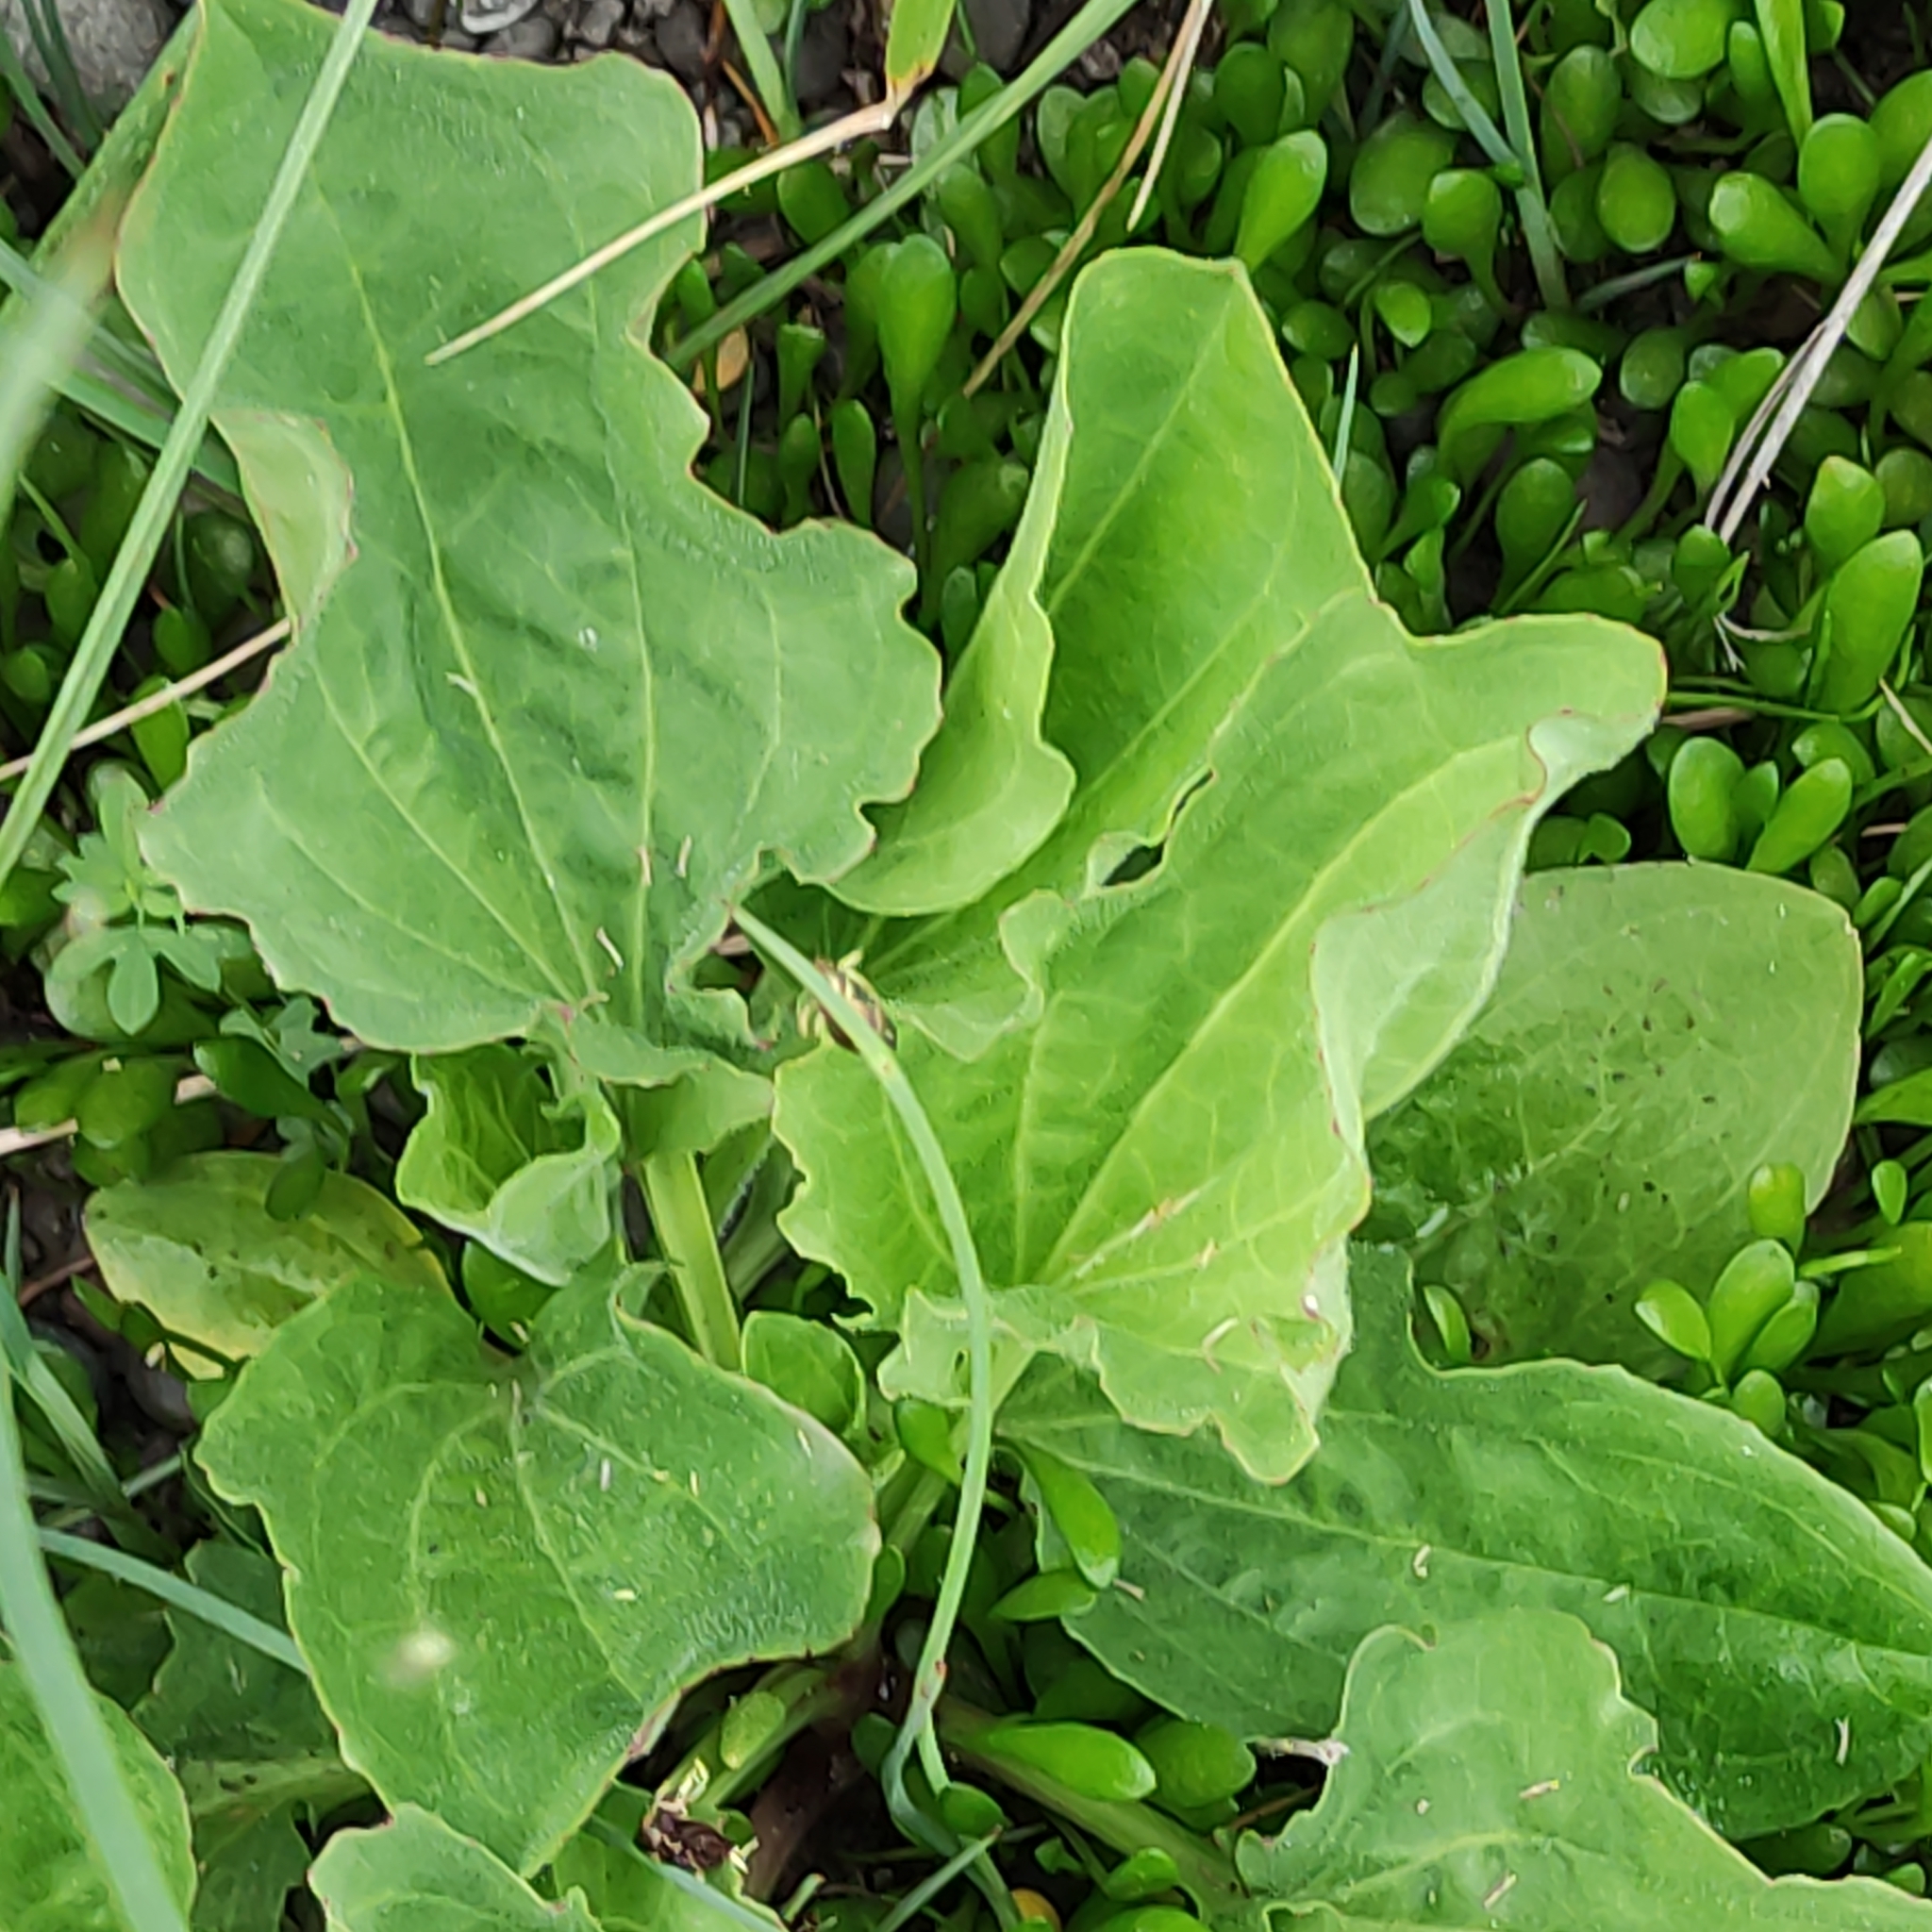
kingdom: Plantae
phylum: Tracheophyta
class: Magnoliopsida
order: Lamiales
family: Plantaginaceae
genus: Plantago
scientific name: Plantago major
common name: Common plantain
